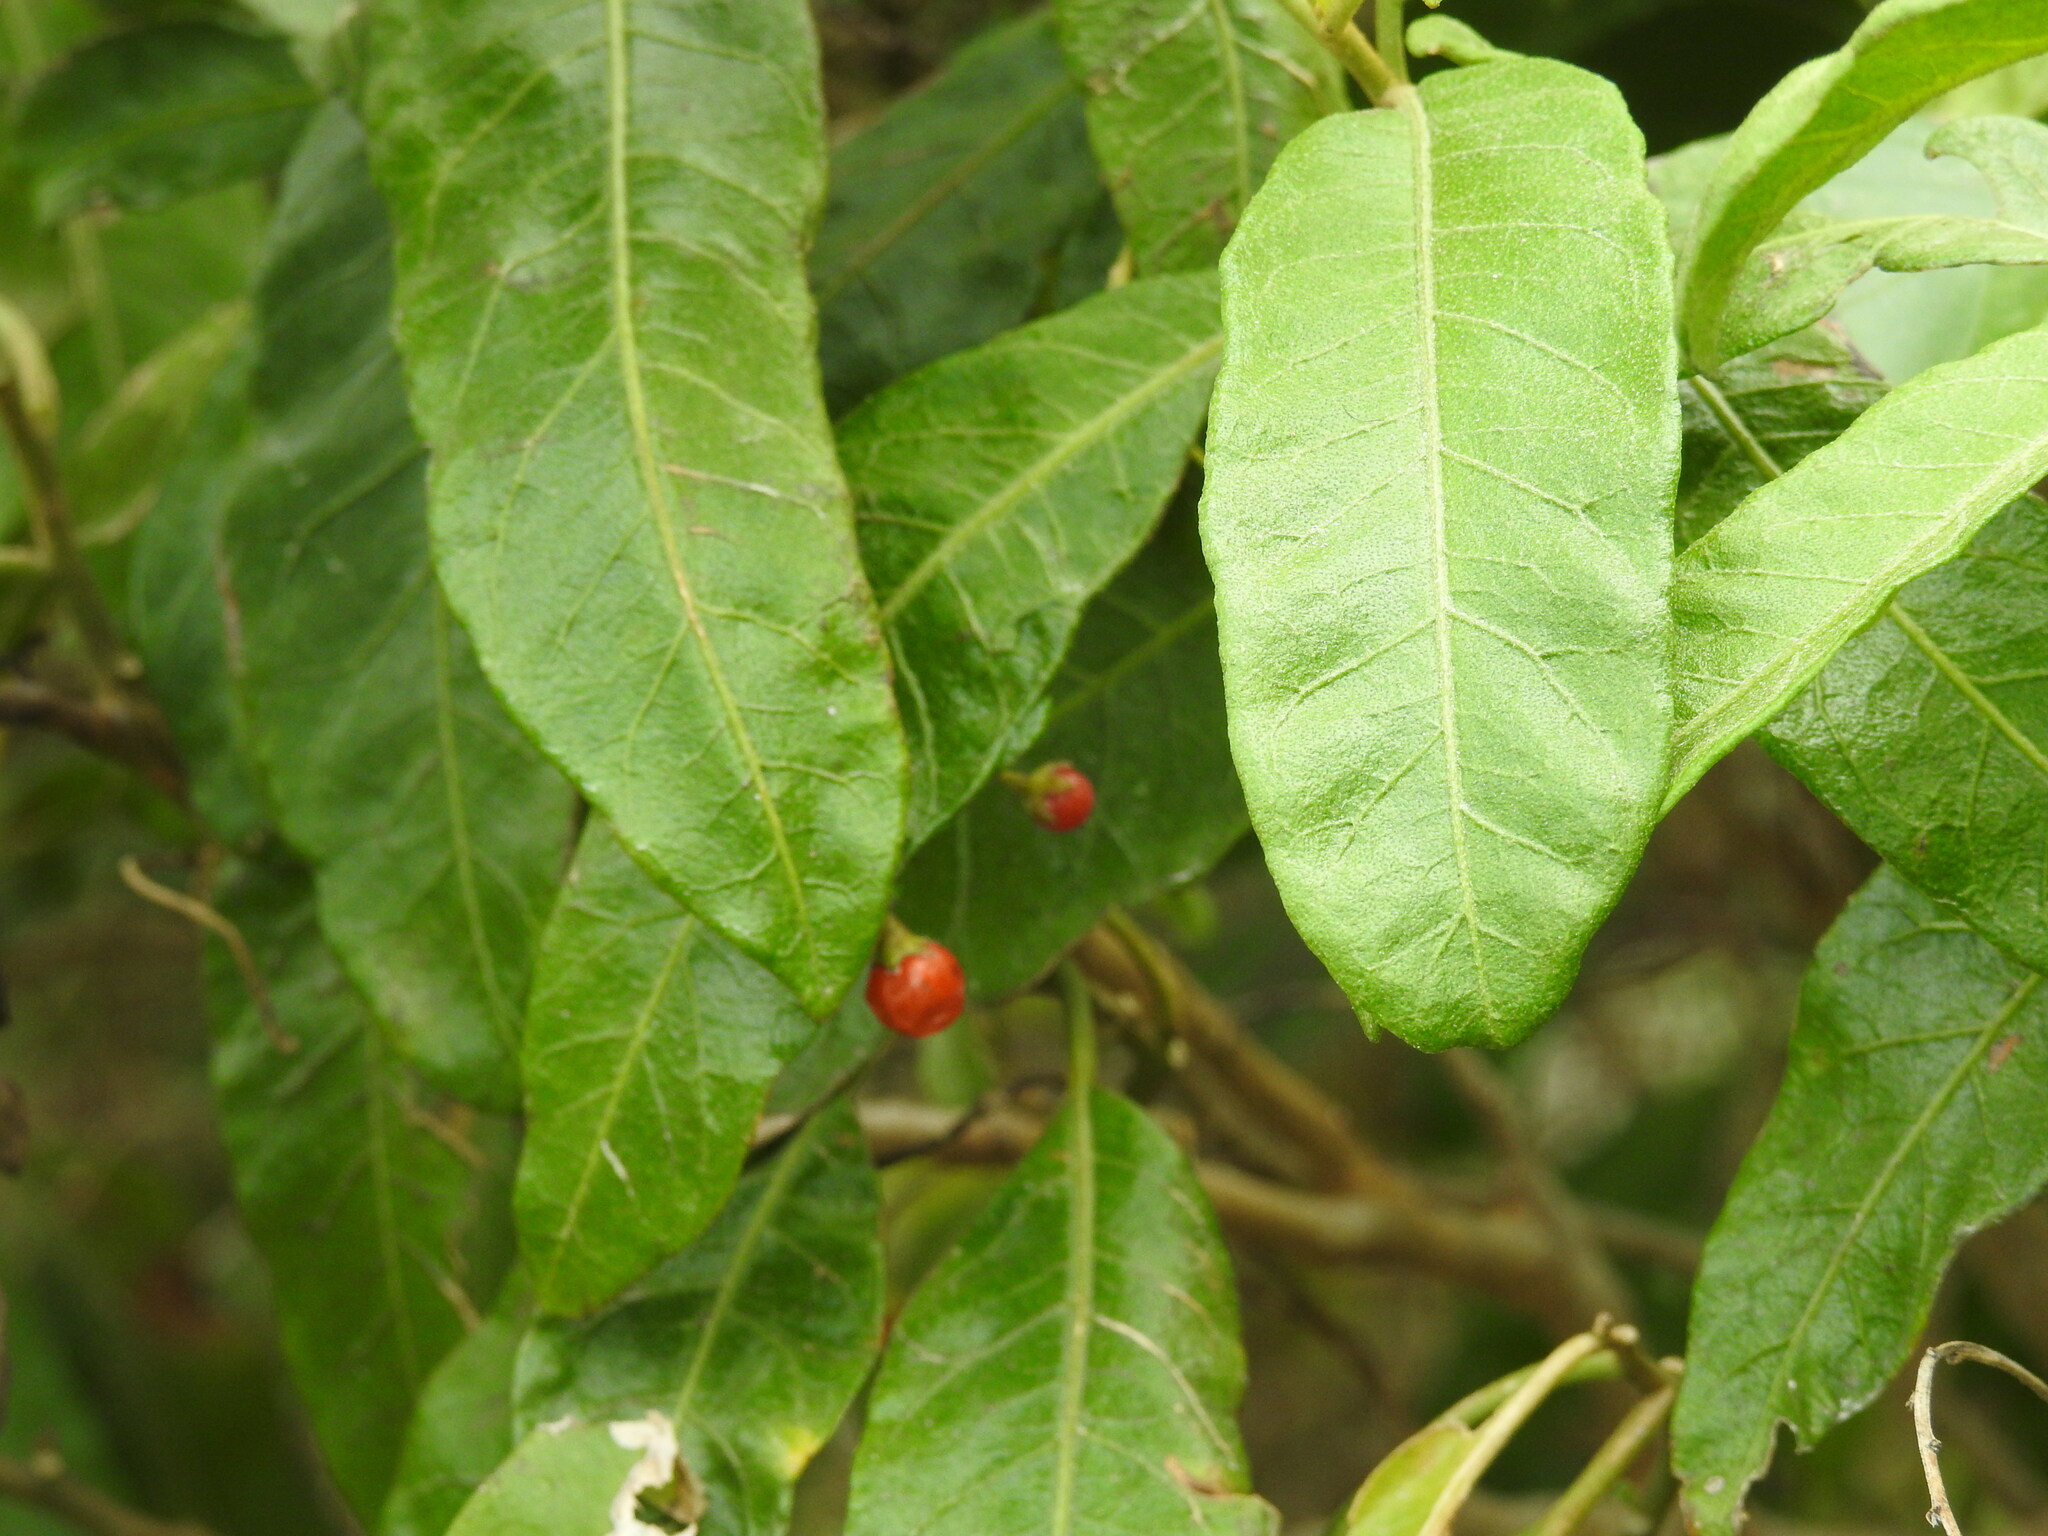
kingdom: Plantae
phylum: Tracheophyta
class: Magnoliopsida
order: Solanales
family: Solanaceae
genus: Solanum
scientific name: Solanum bahamense
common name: Canker-berry
